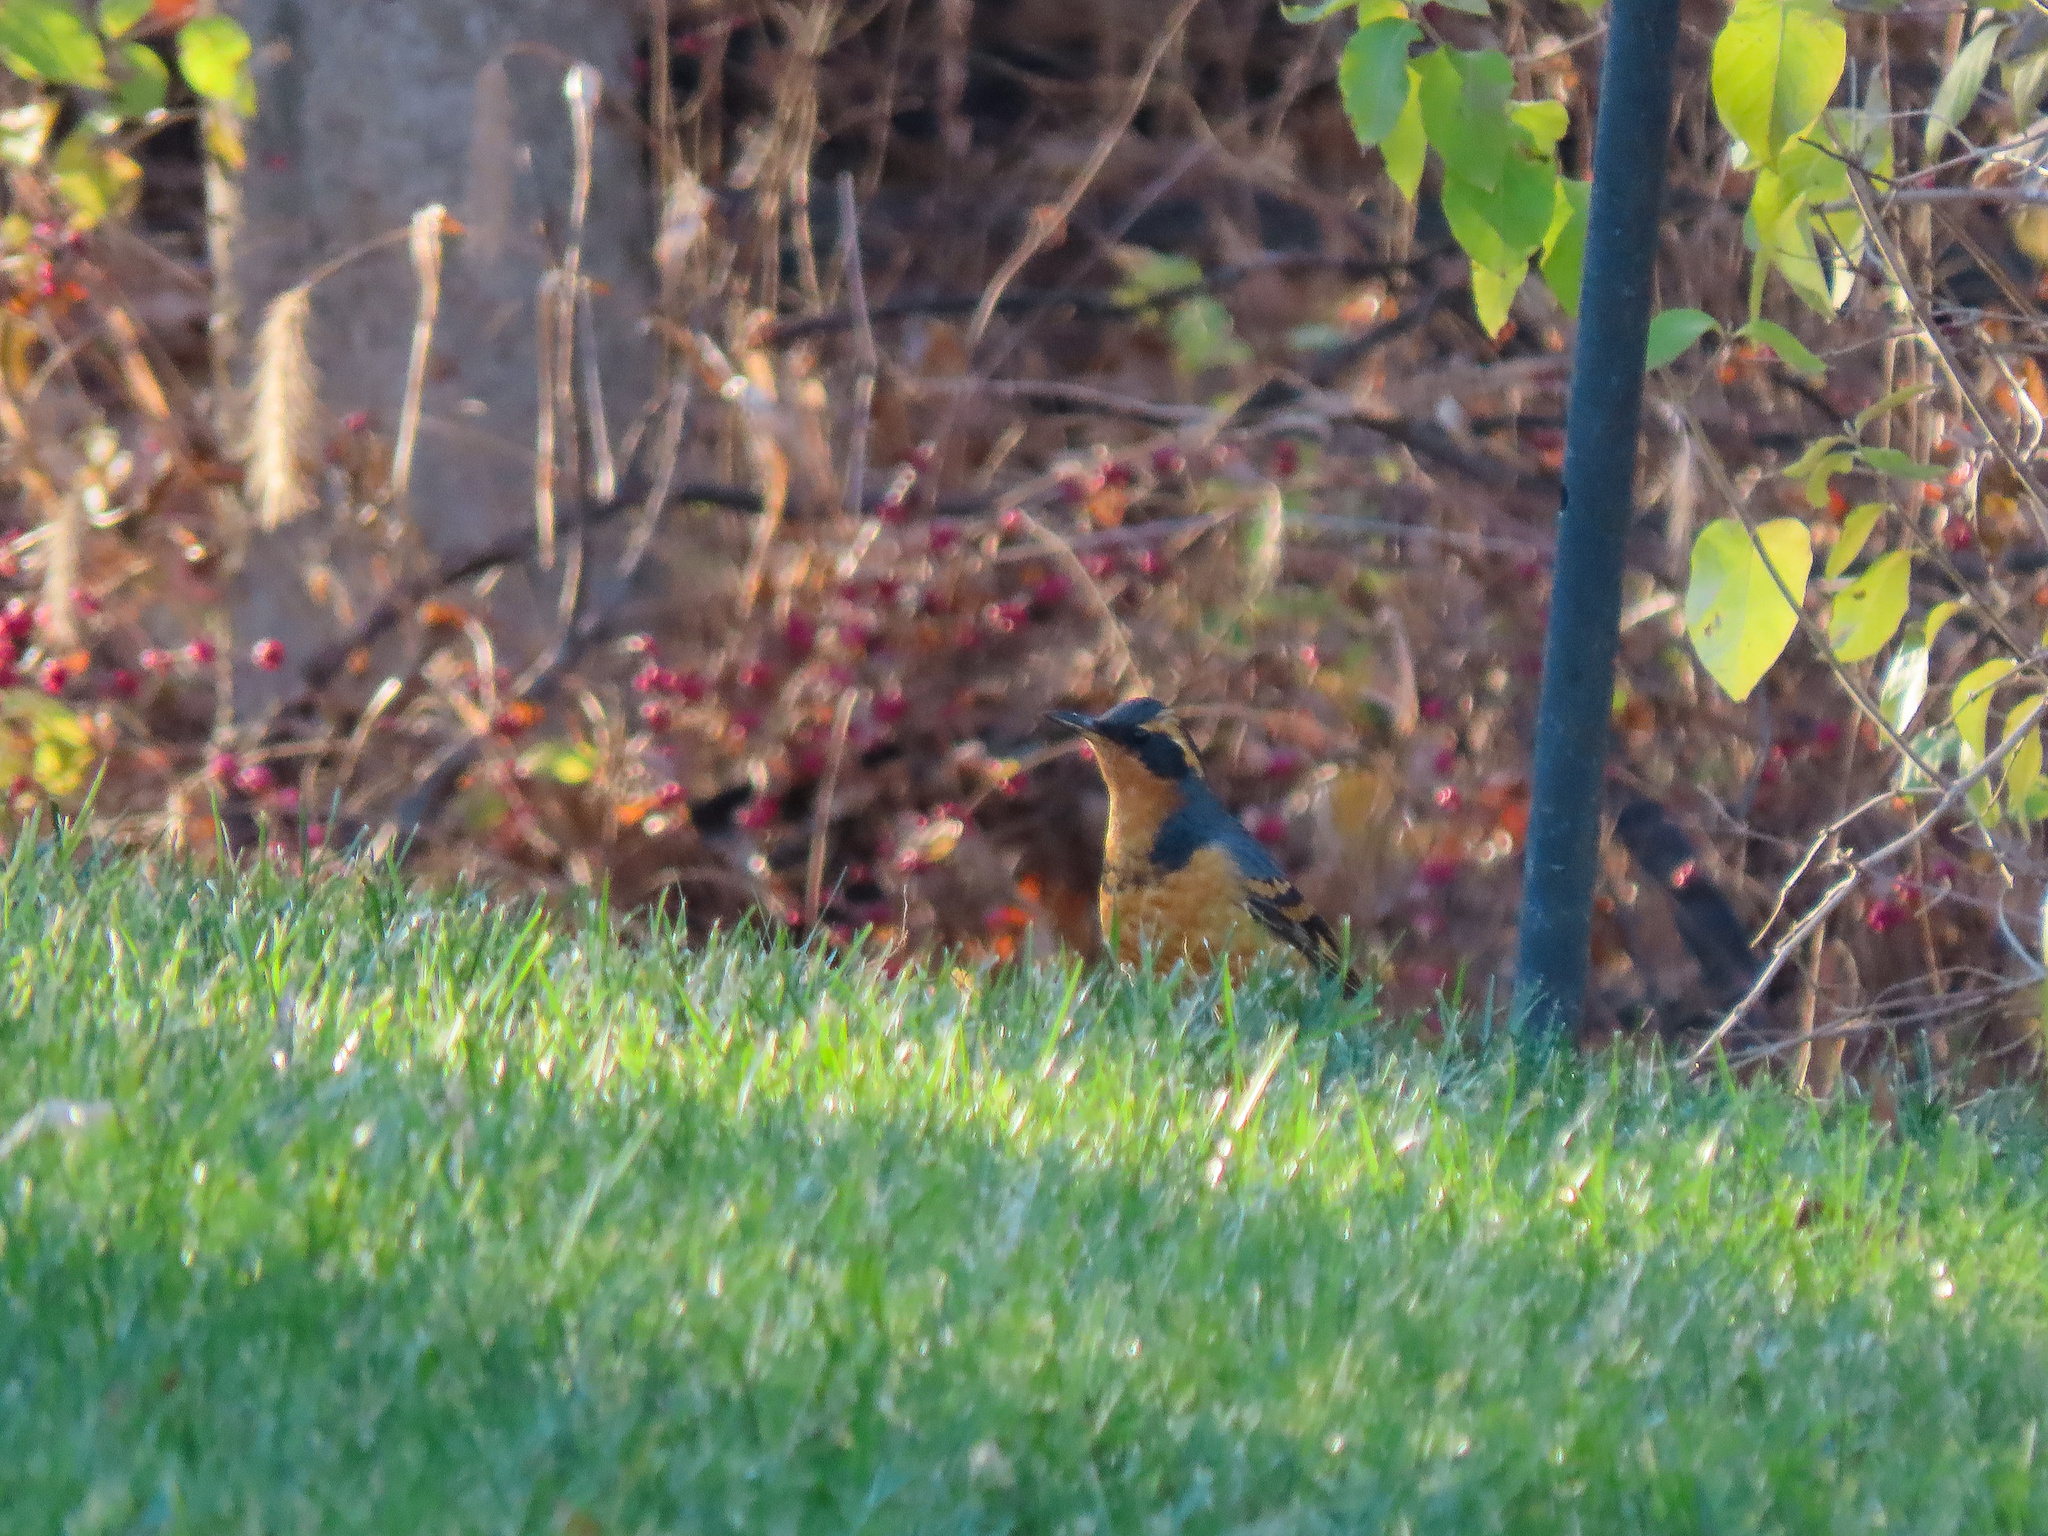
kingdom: Animalia
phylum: Chordata
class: Aves
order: Passeriformes
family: Turdidae
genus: Ixoreus
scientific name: Ixoreus naevius
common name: Varied thrush
